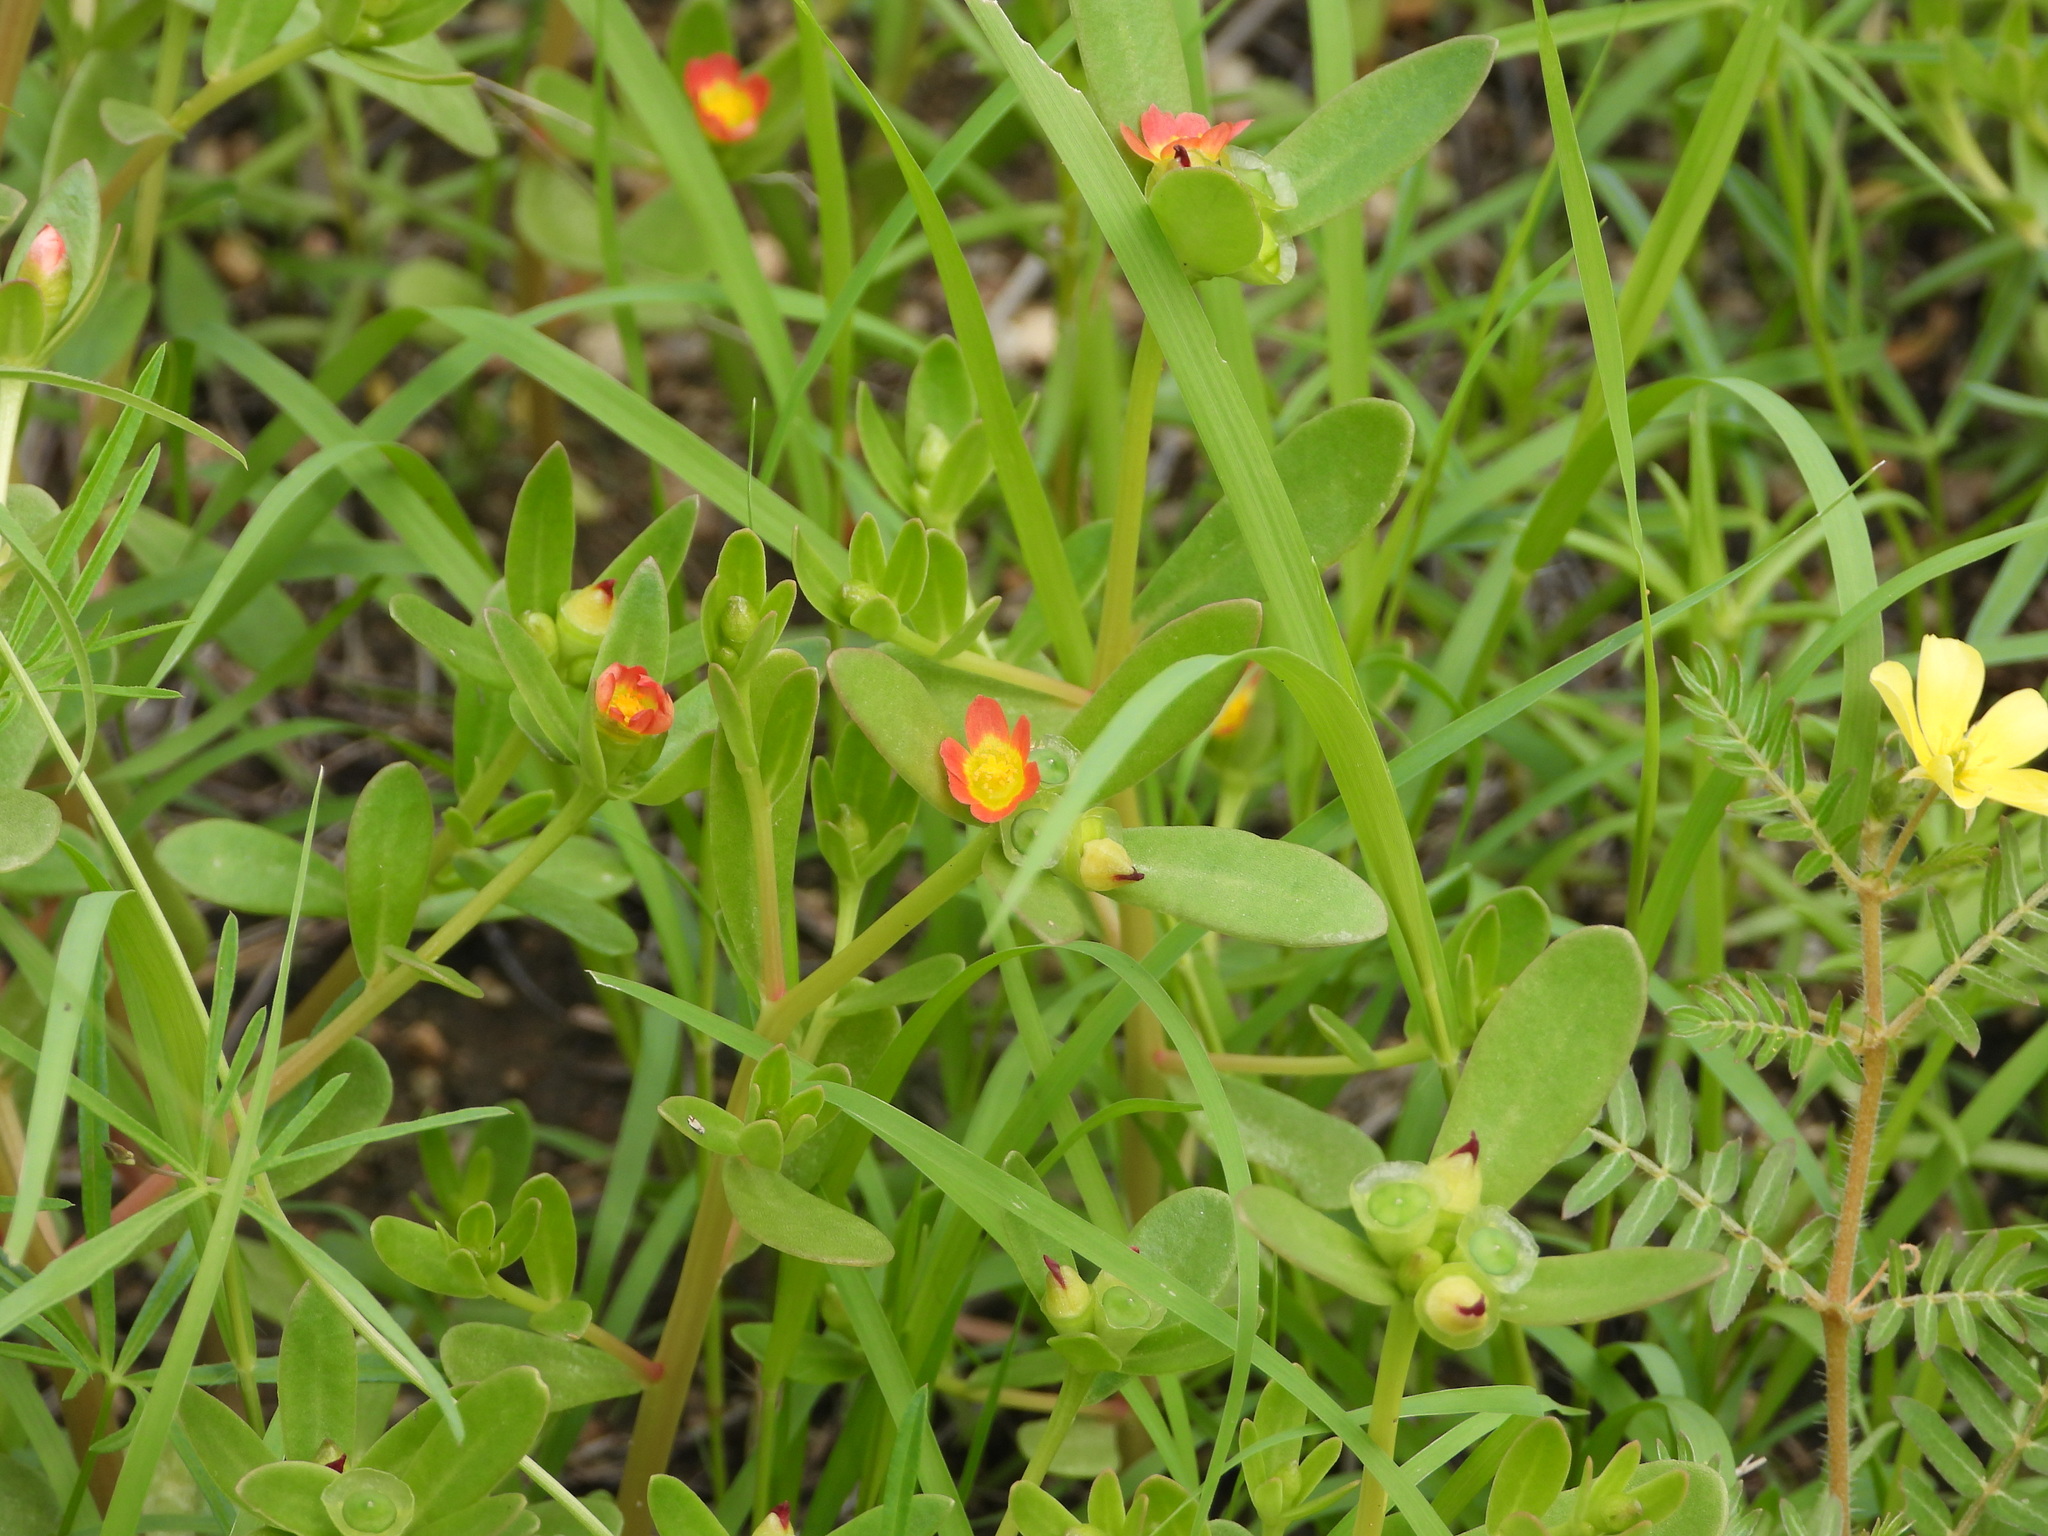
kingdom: Plantae
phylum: Tracheophyta
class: Magnoliopsida
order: Caryophyllales
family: Portulacaceae
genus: Portulaca
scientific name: Portulaca umbraticola
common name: Wingpod purslane
